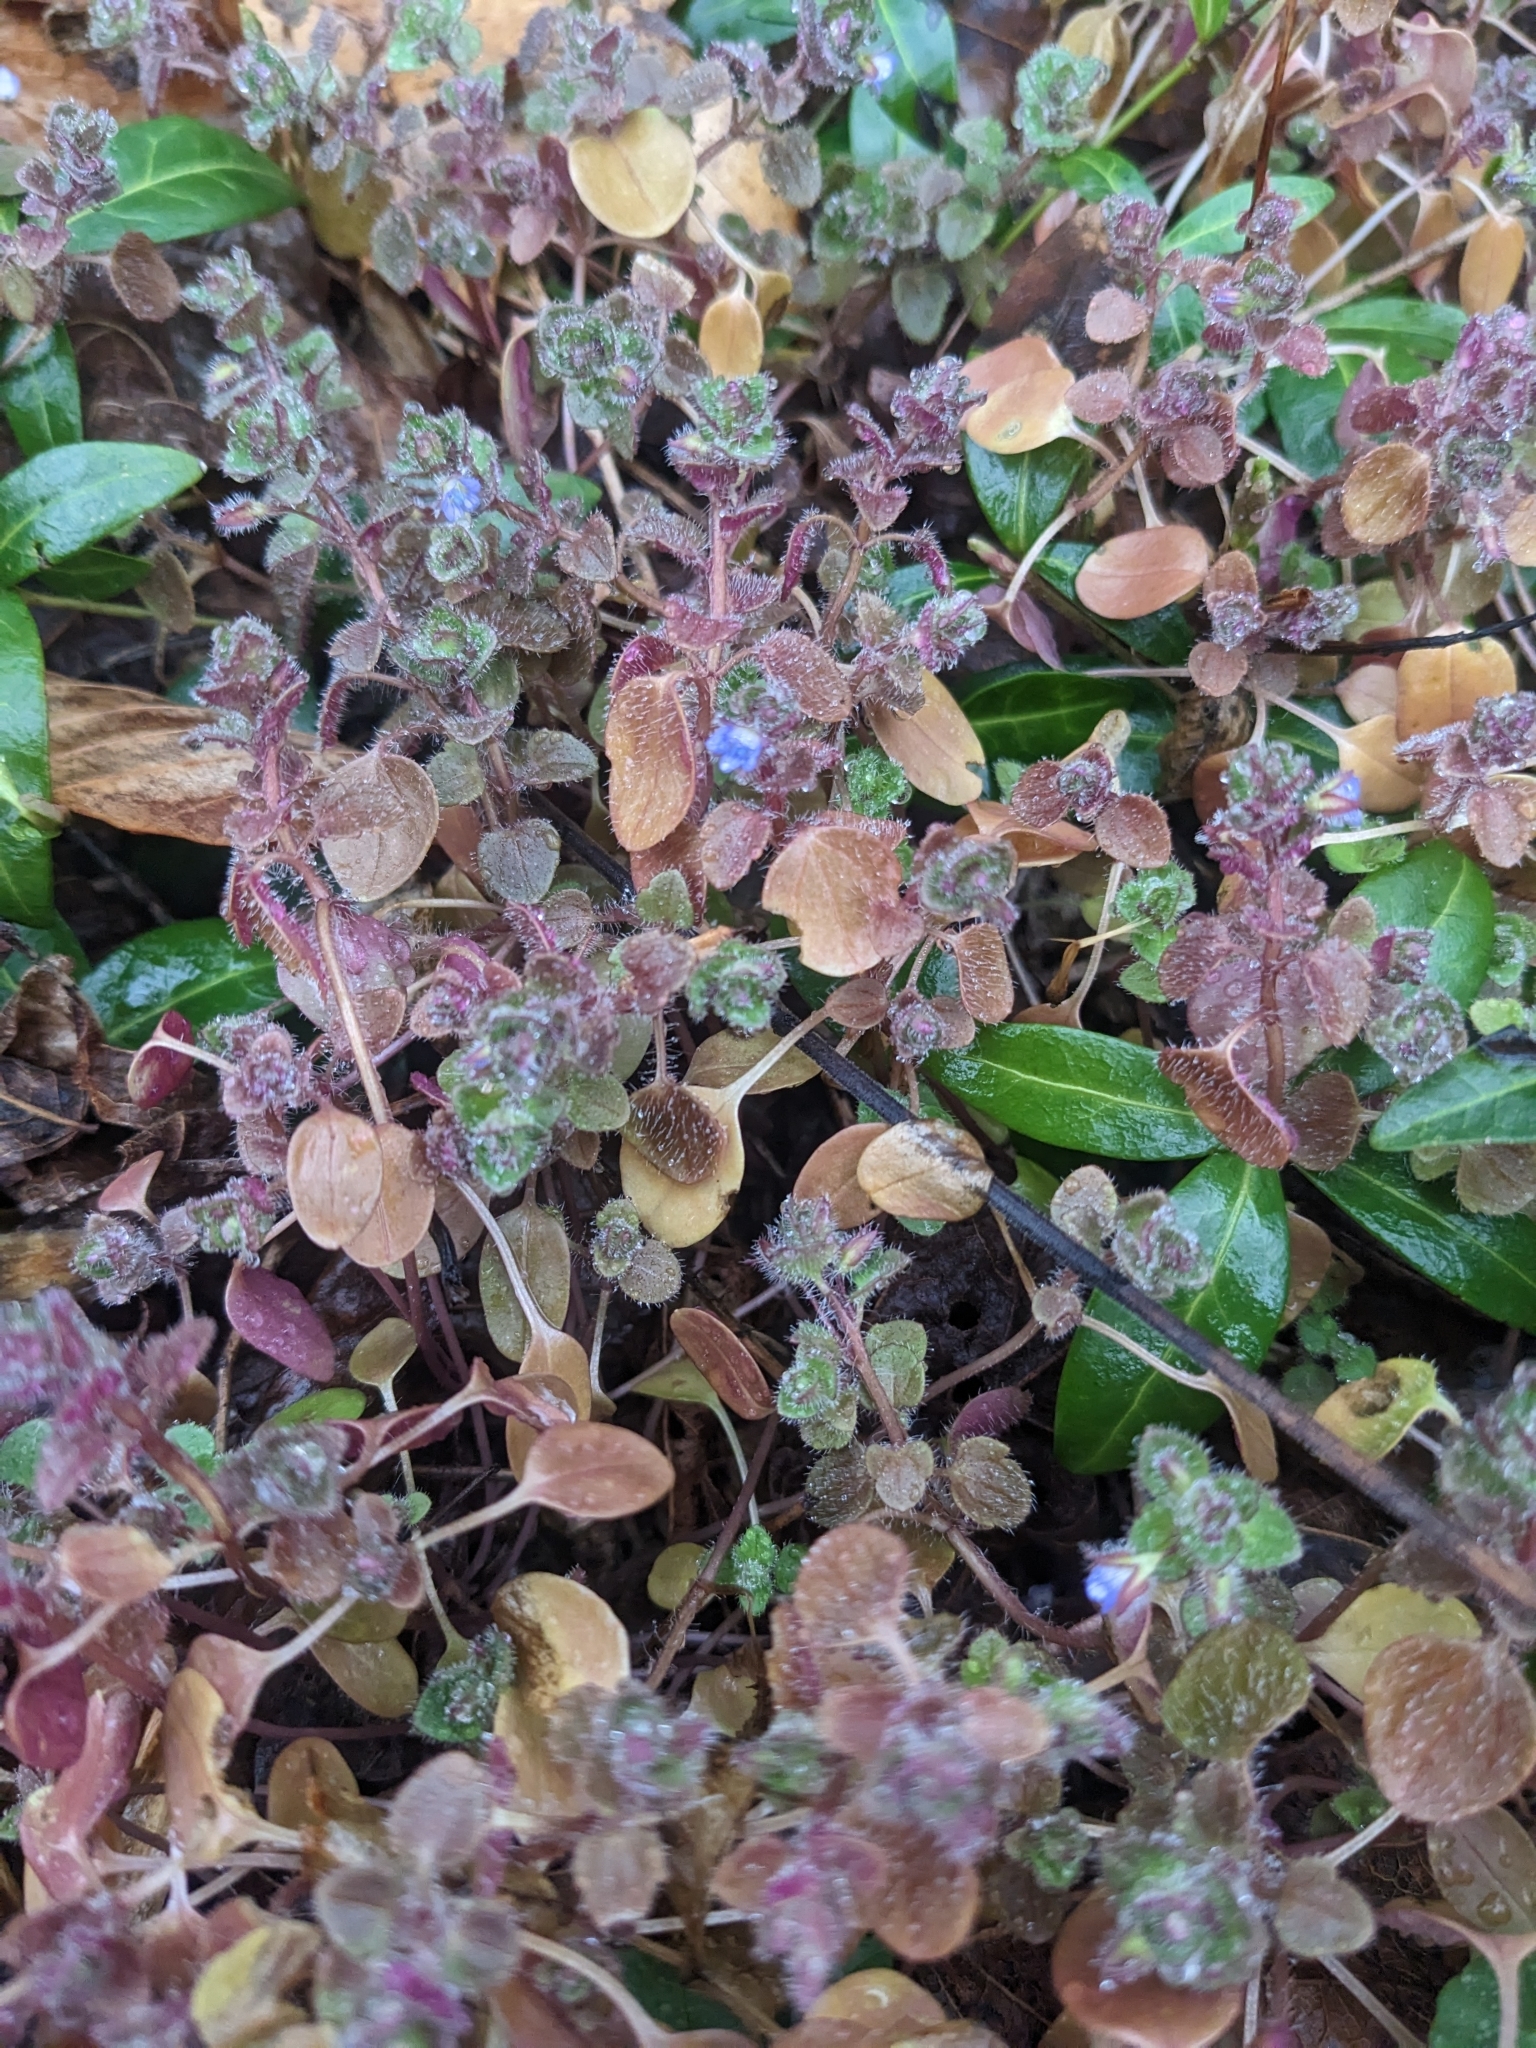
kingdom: Plantae
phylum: Tracheophyta
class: Magnoliopsida
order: Lamiales
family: Plantaginaceae
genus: Veronica
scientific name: Veronica hederifolia
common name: Ivy-leaved speedwell
